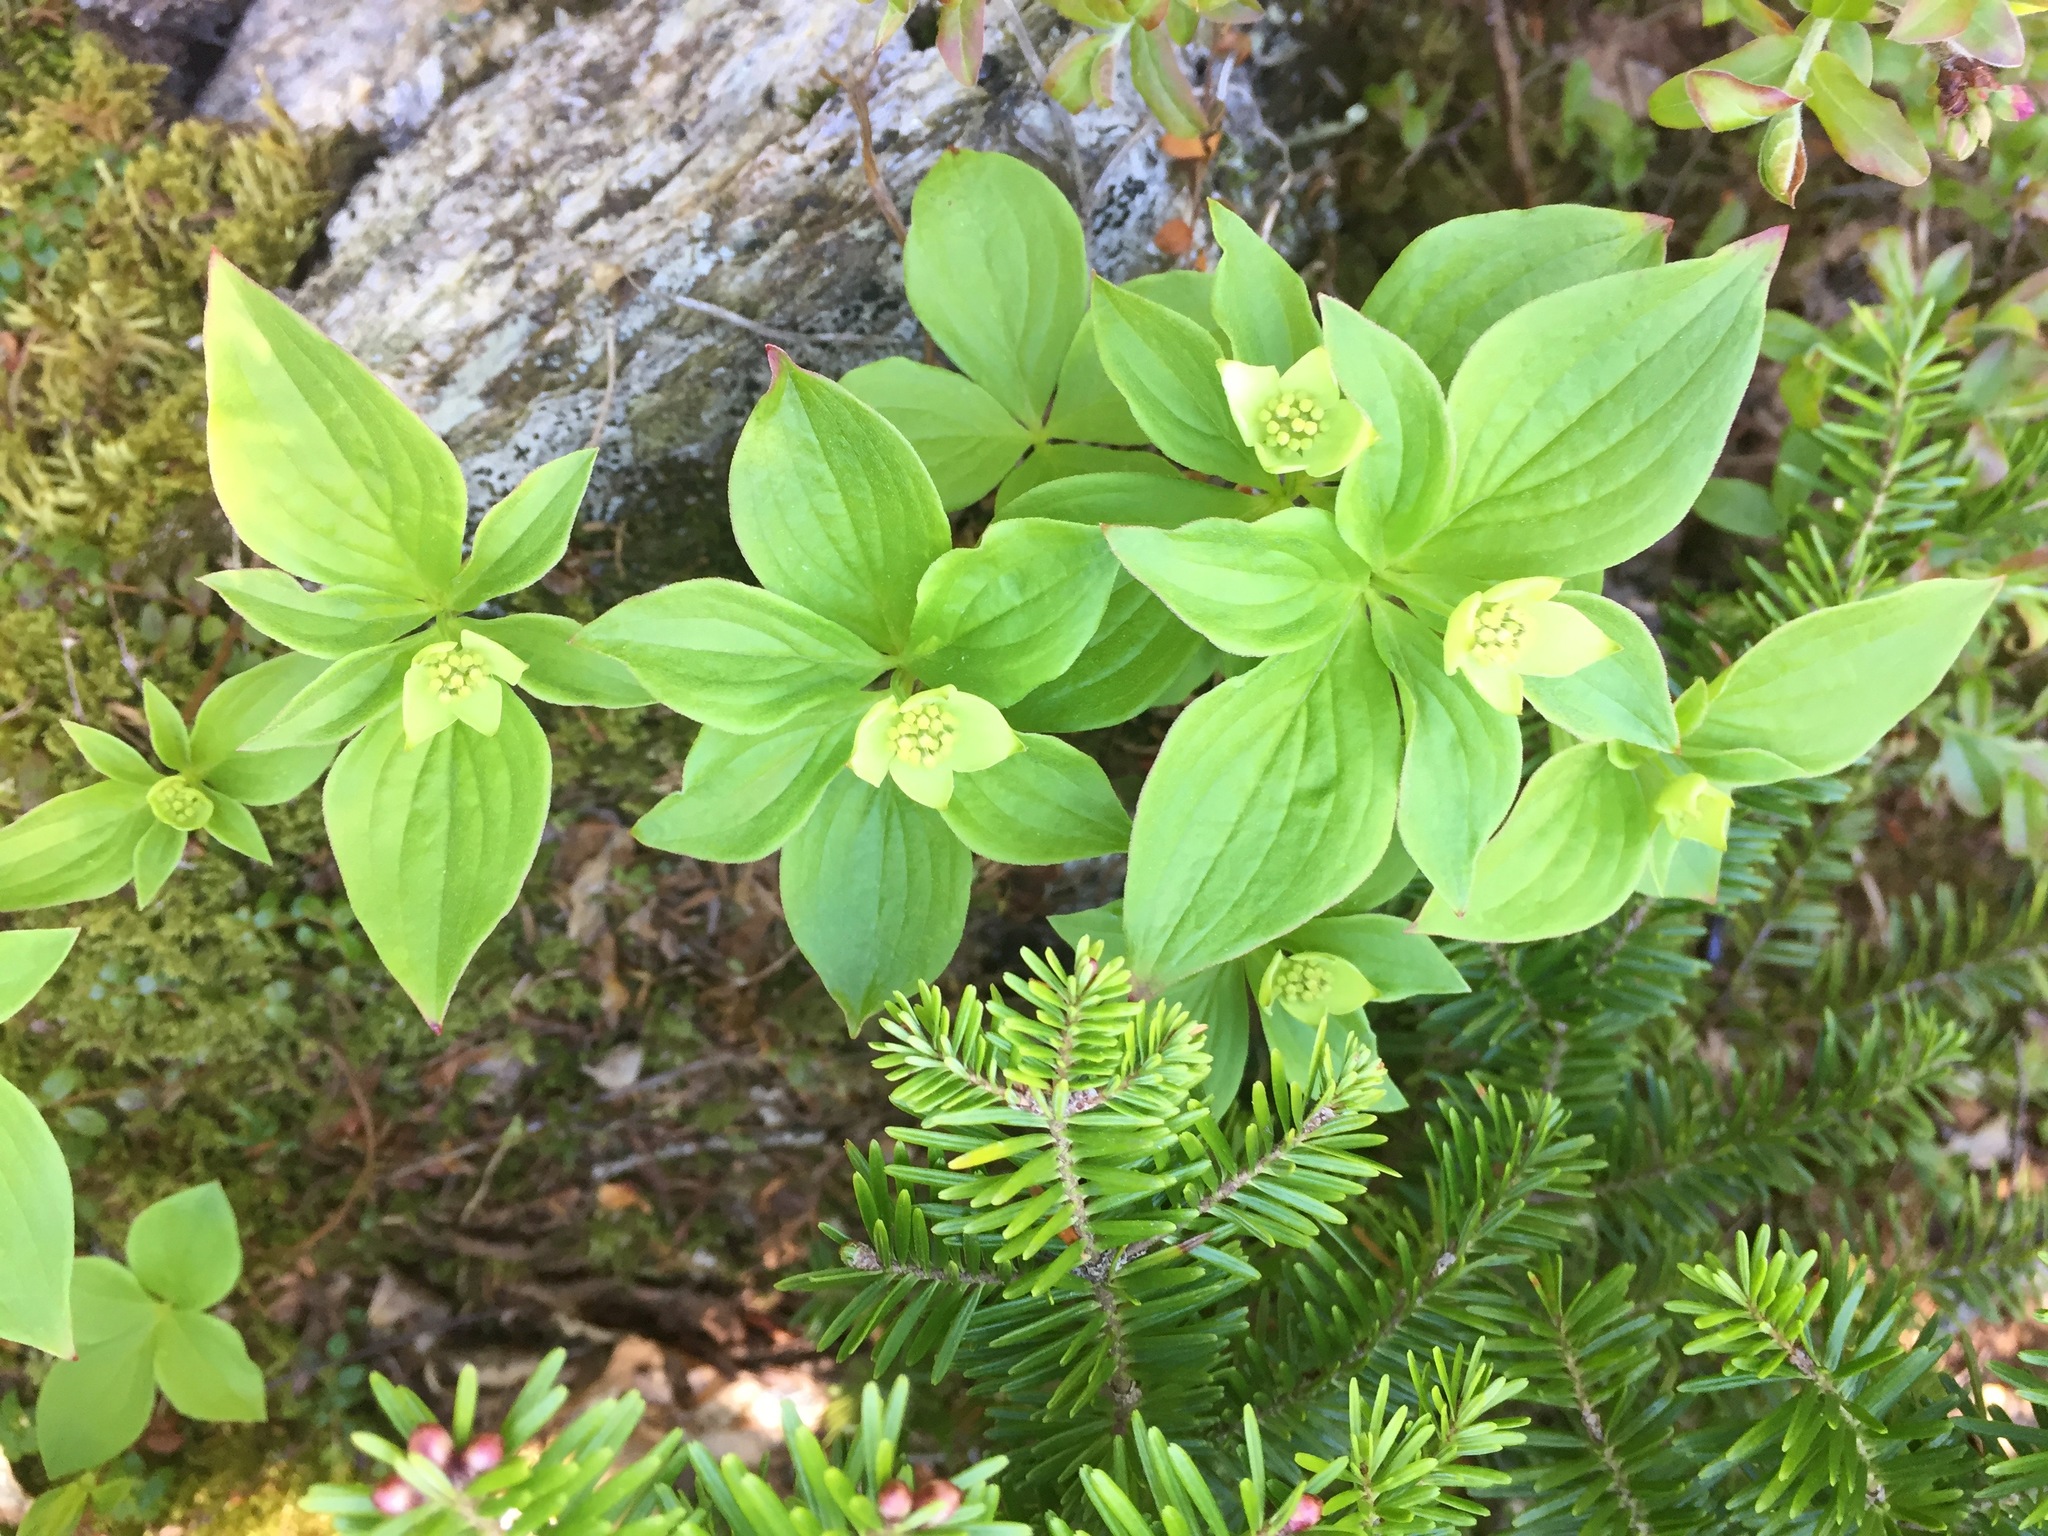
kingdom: Plantae
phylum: Tracheophyta
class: Magnoliopsida
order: Cornales
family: Cornaceae
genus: Cornus
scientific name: Cornus canadensis
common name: Creeping dogwood
